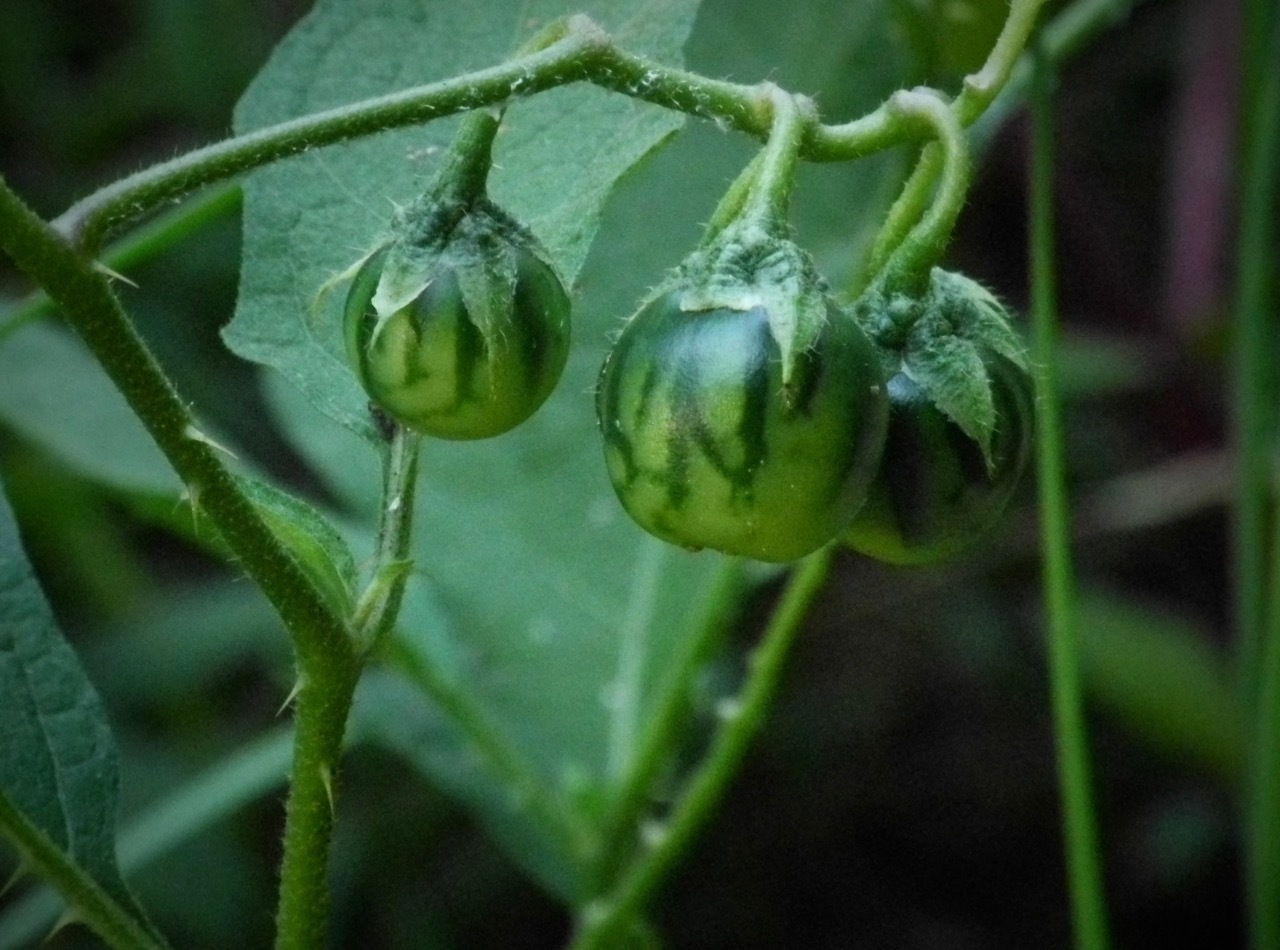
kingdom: Plantae
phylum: Tracheophyta
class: Magnoliopsida
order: Solanales
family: Solanaceae
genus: Solanum
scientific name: Solanum carolinense
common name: Horse-nettle
